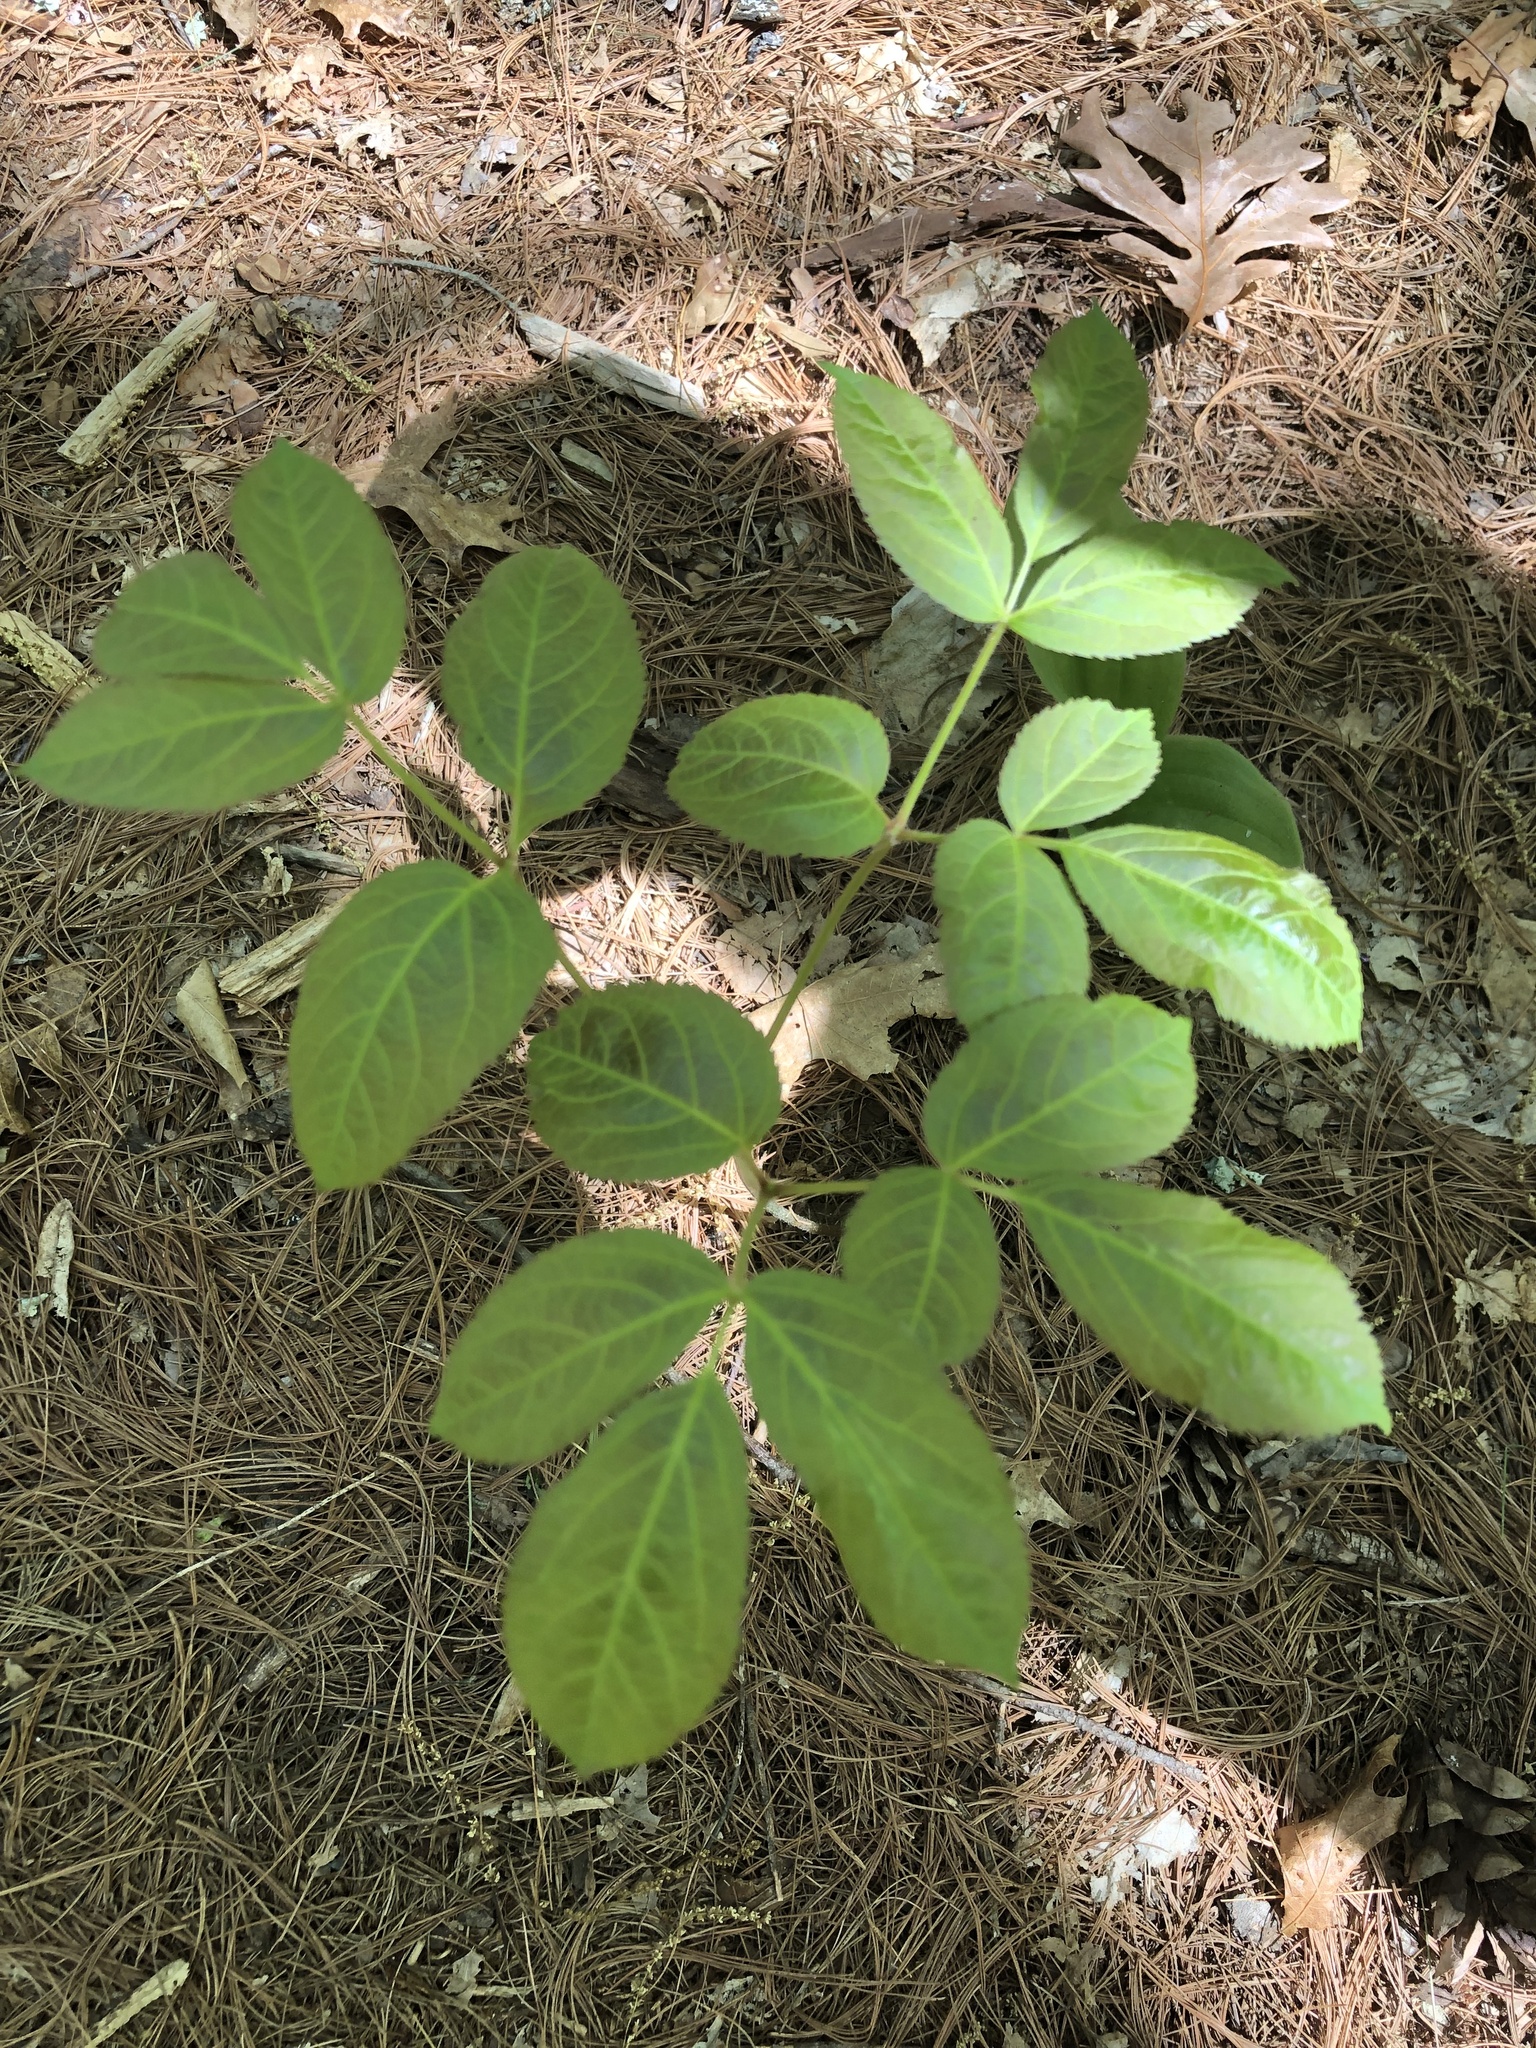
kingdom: Plantae
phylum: Tracheophyta
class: Magnoliopsida
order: Apiales
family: Araliaceae
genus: Aralia
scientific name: Aralia nudicaulis
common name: Wild sarsaparilla
